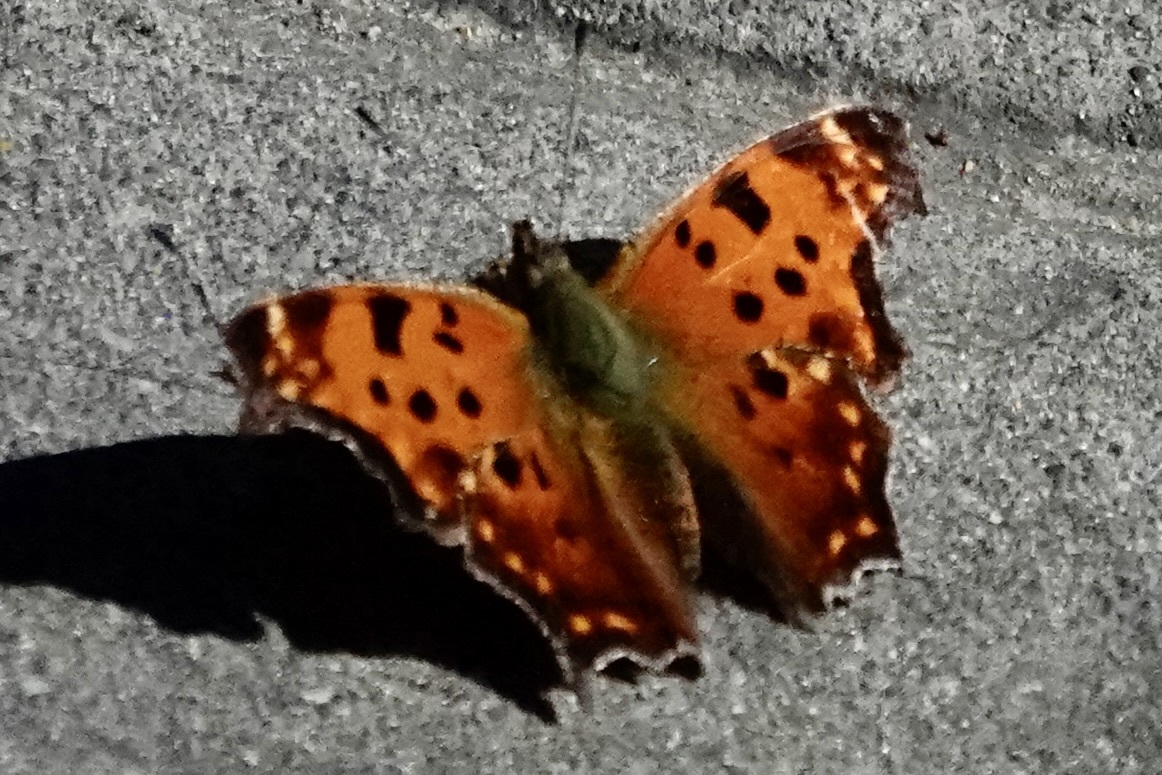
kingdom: Animalia
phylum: Arthropoda
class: Insecta
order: Lepidoptera
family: Nymphalidae
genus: Polygonia
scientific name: Polygonia comma
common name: Eastern comma
